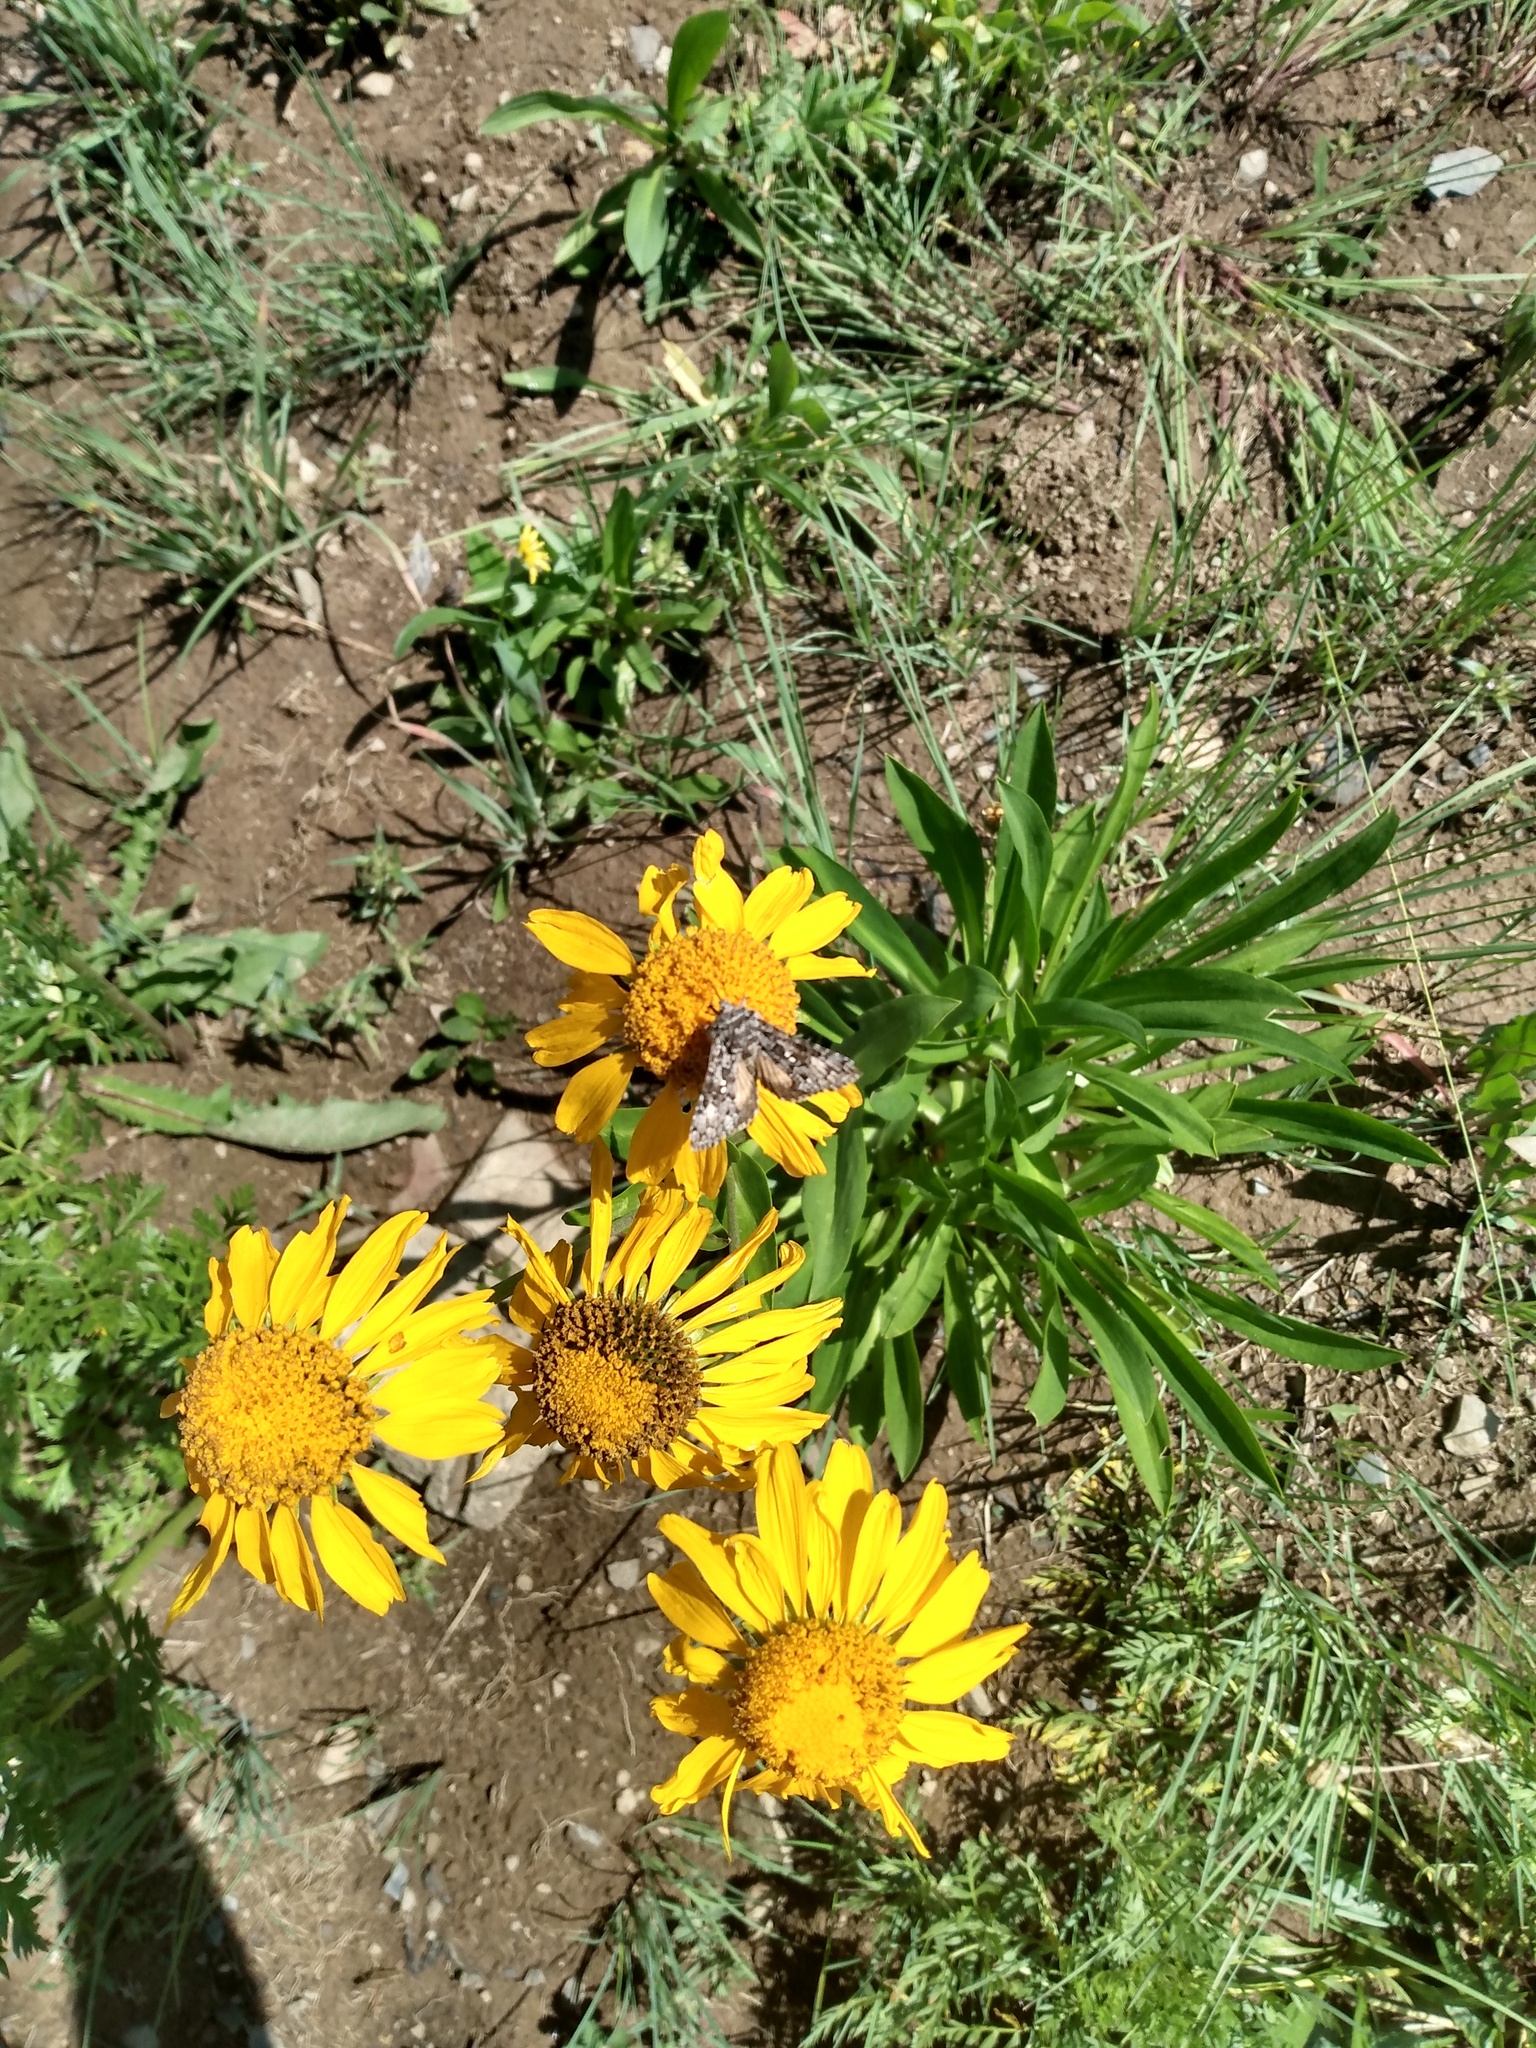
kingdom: Plantae
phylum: Tracheophyta
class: Magnoliopsida
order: Asterales
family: Asteraceae
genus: Hymenoxys
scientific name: Hymenoxys hoopesii
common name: Orange-sneezeweed
